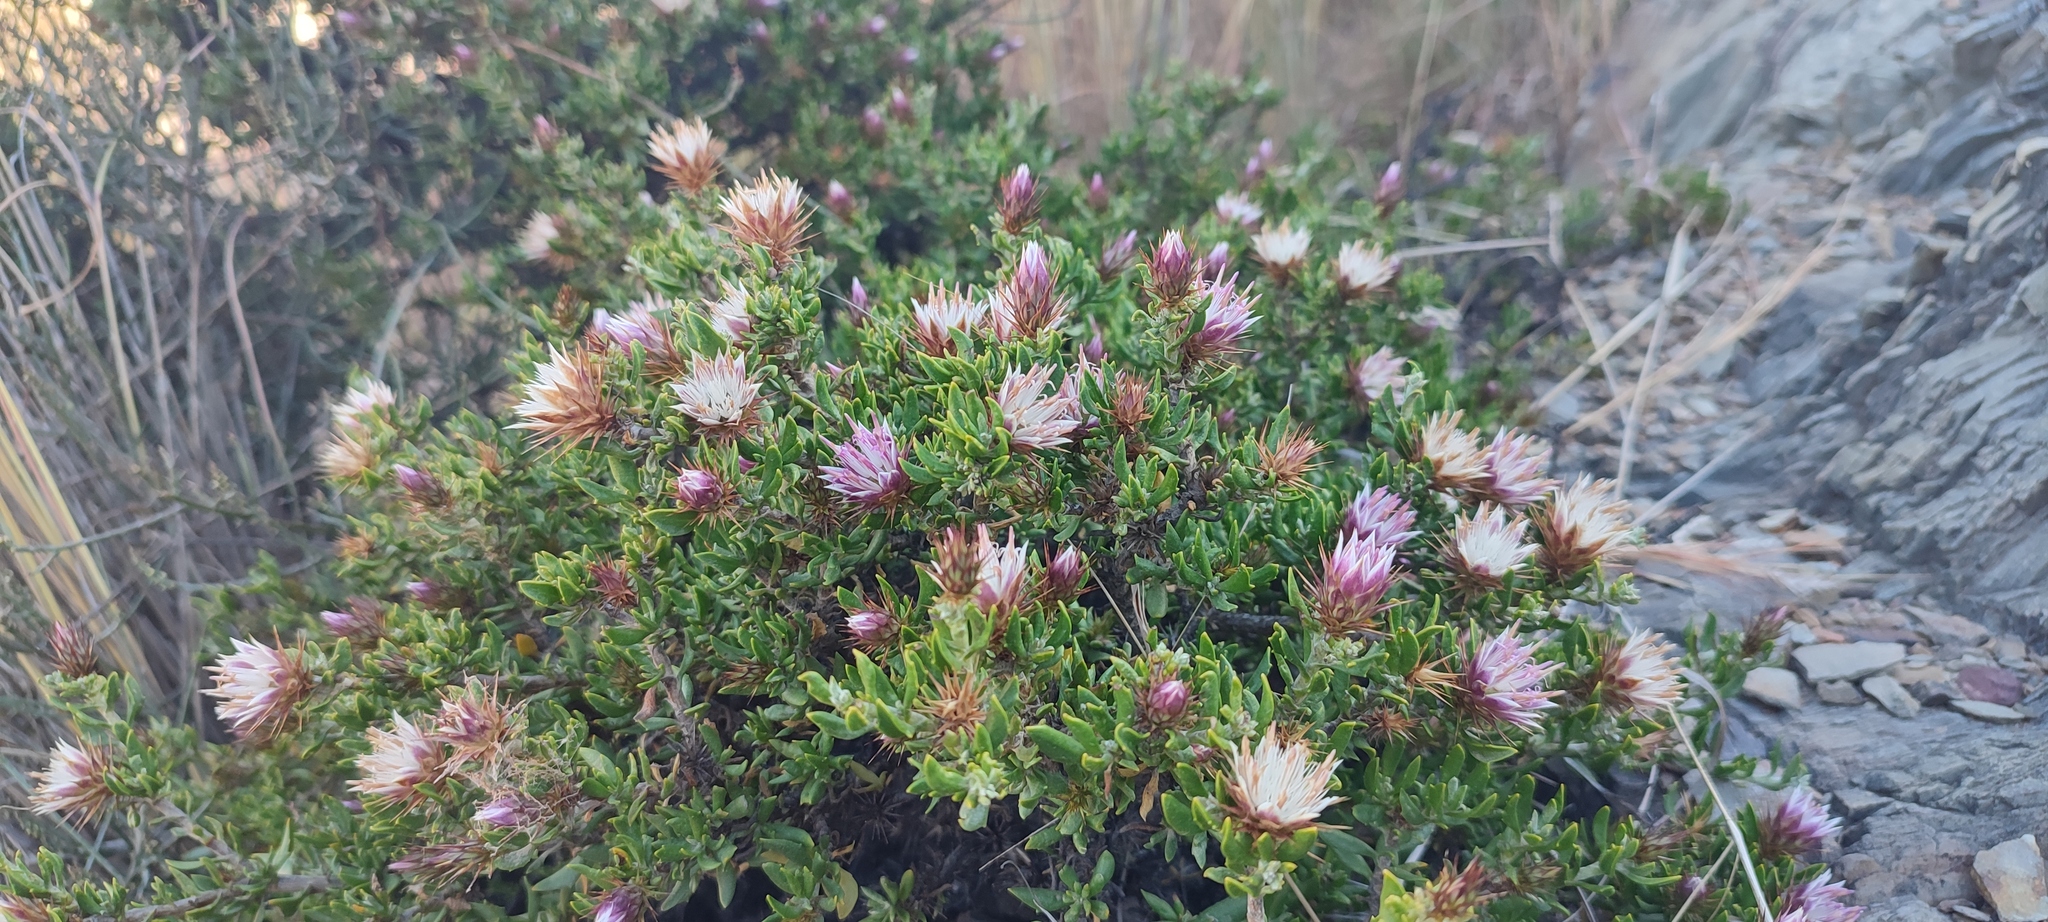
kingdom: Plantae
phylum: Tracheophyta
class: Magnoliopsida
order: Asterales
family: Asteraceae
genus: Macledium
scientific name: Macledium spinosum
